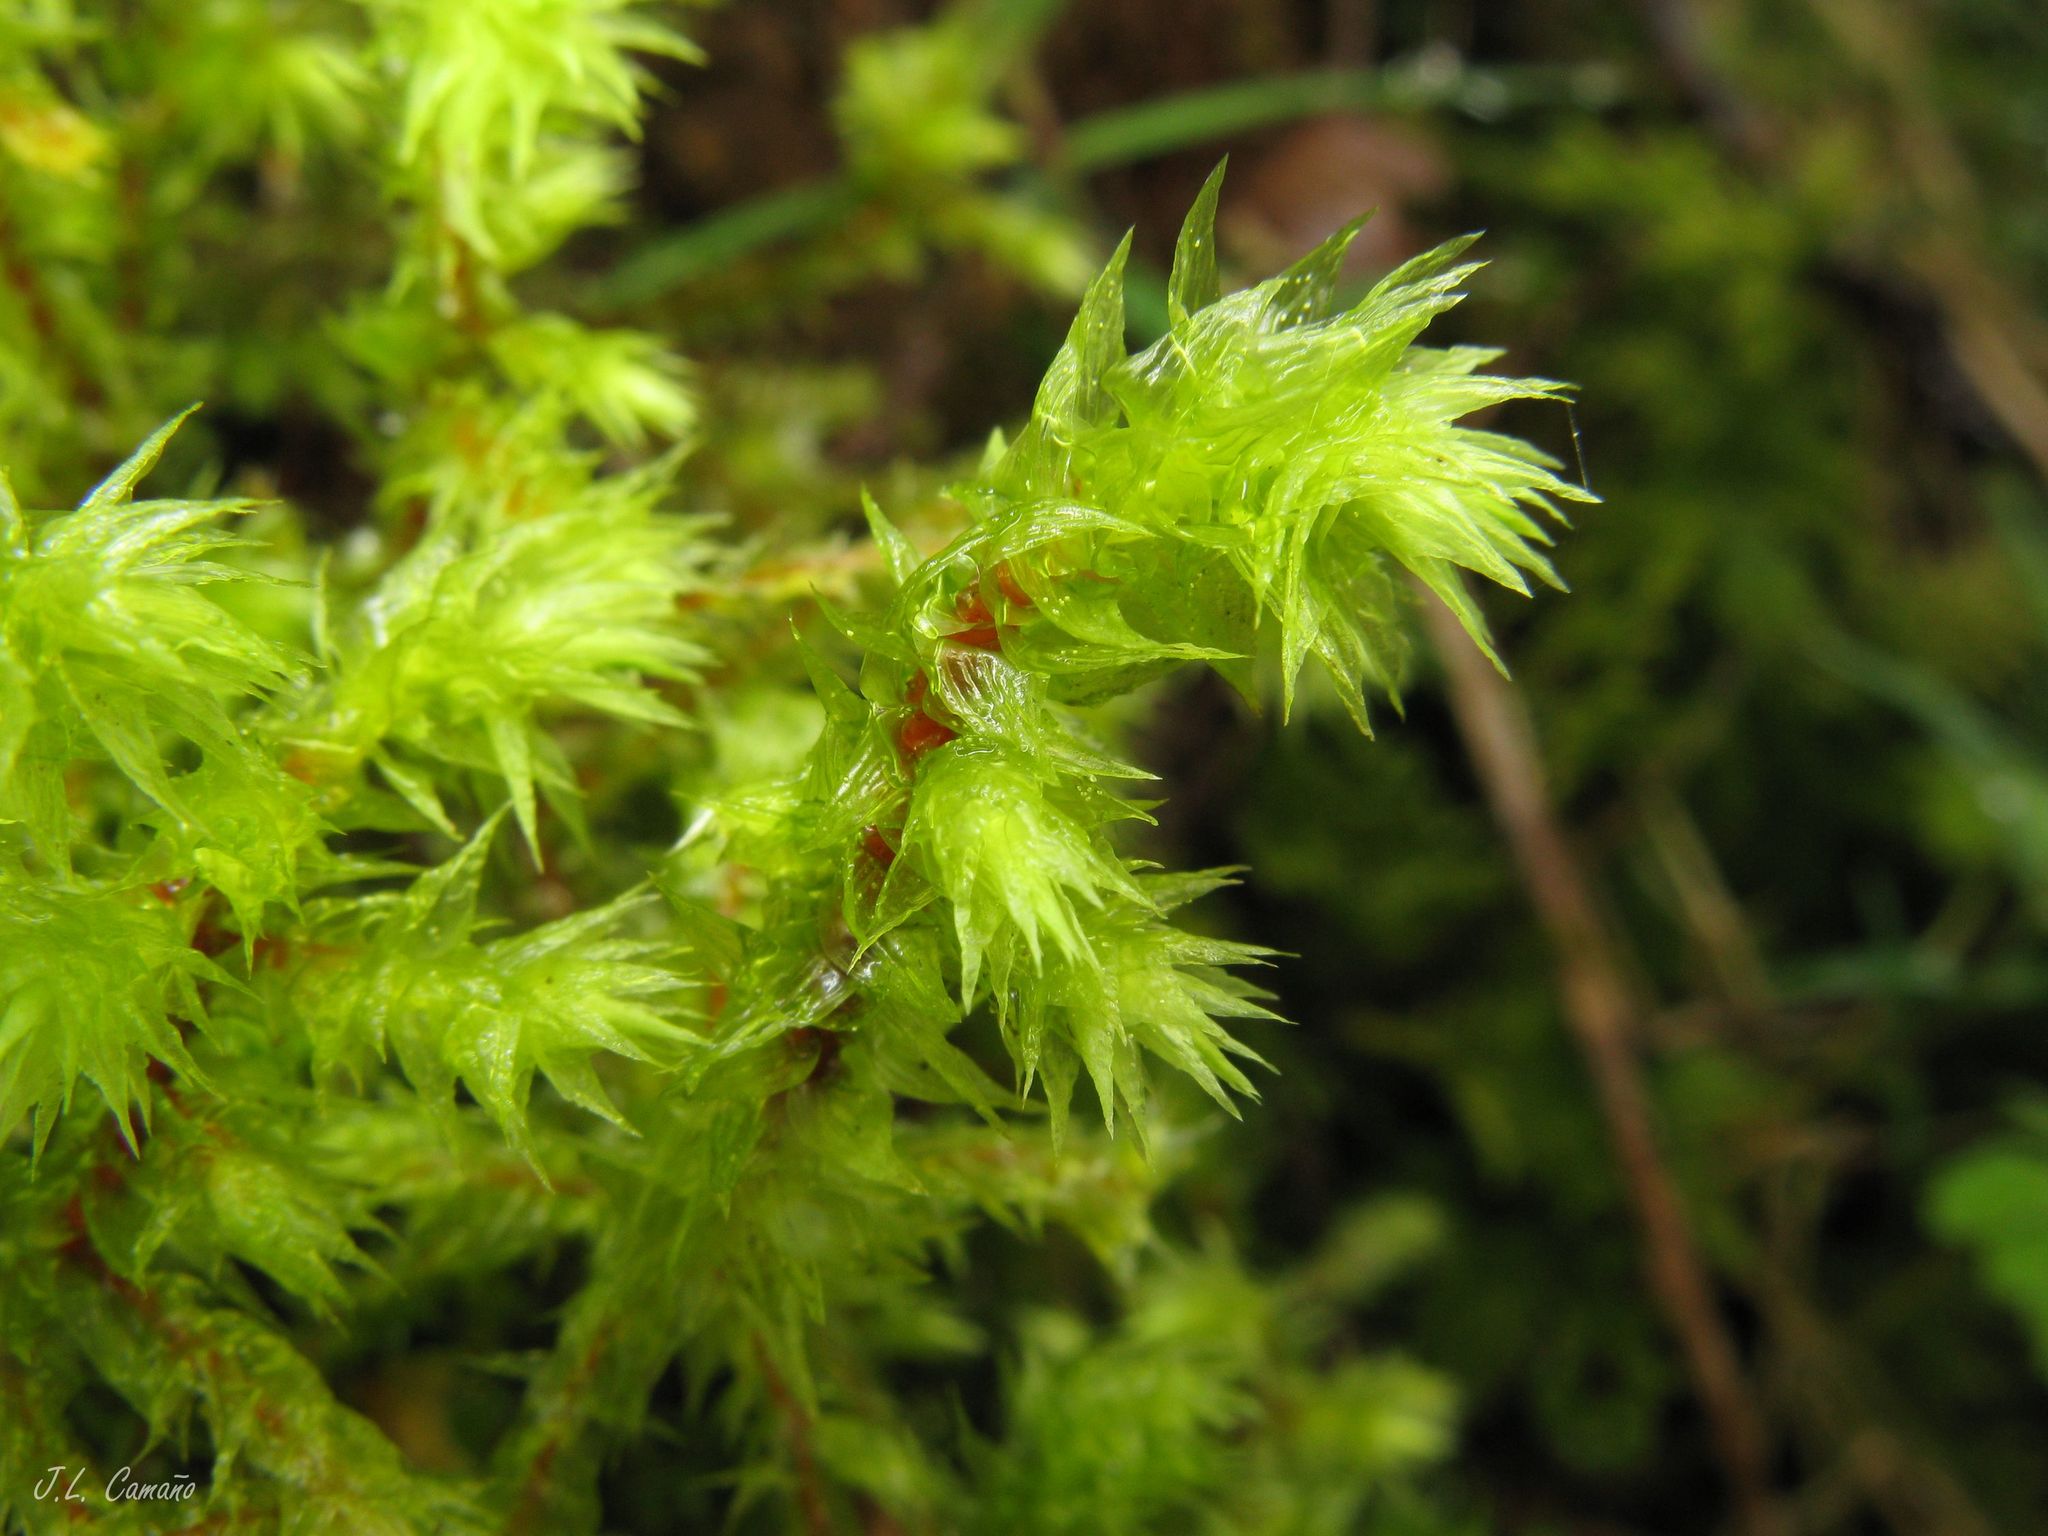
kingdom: Plantae
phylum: Bryophyta
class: Bryopsida
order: Hypnales
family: Hylocomiaceae
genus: Hylocomiadelphus
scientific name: Hylocomiadelphus triquetrus
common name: Rough goose neck moss
